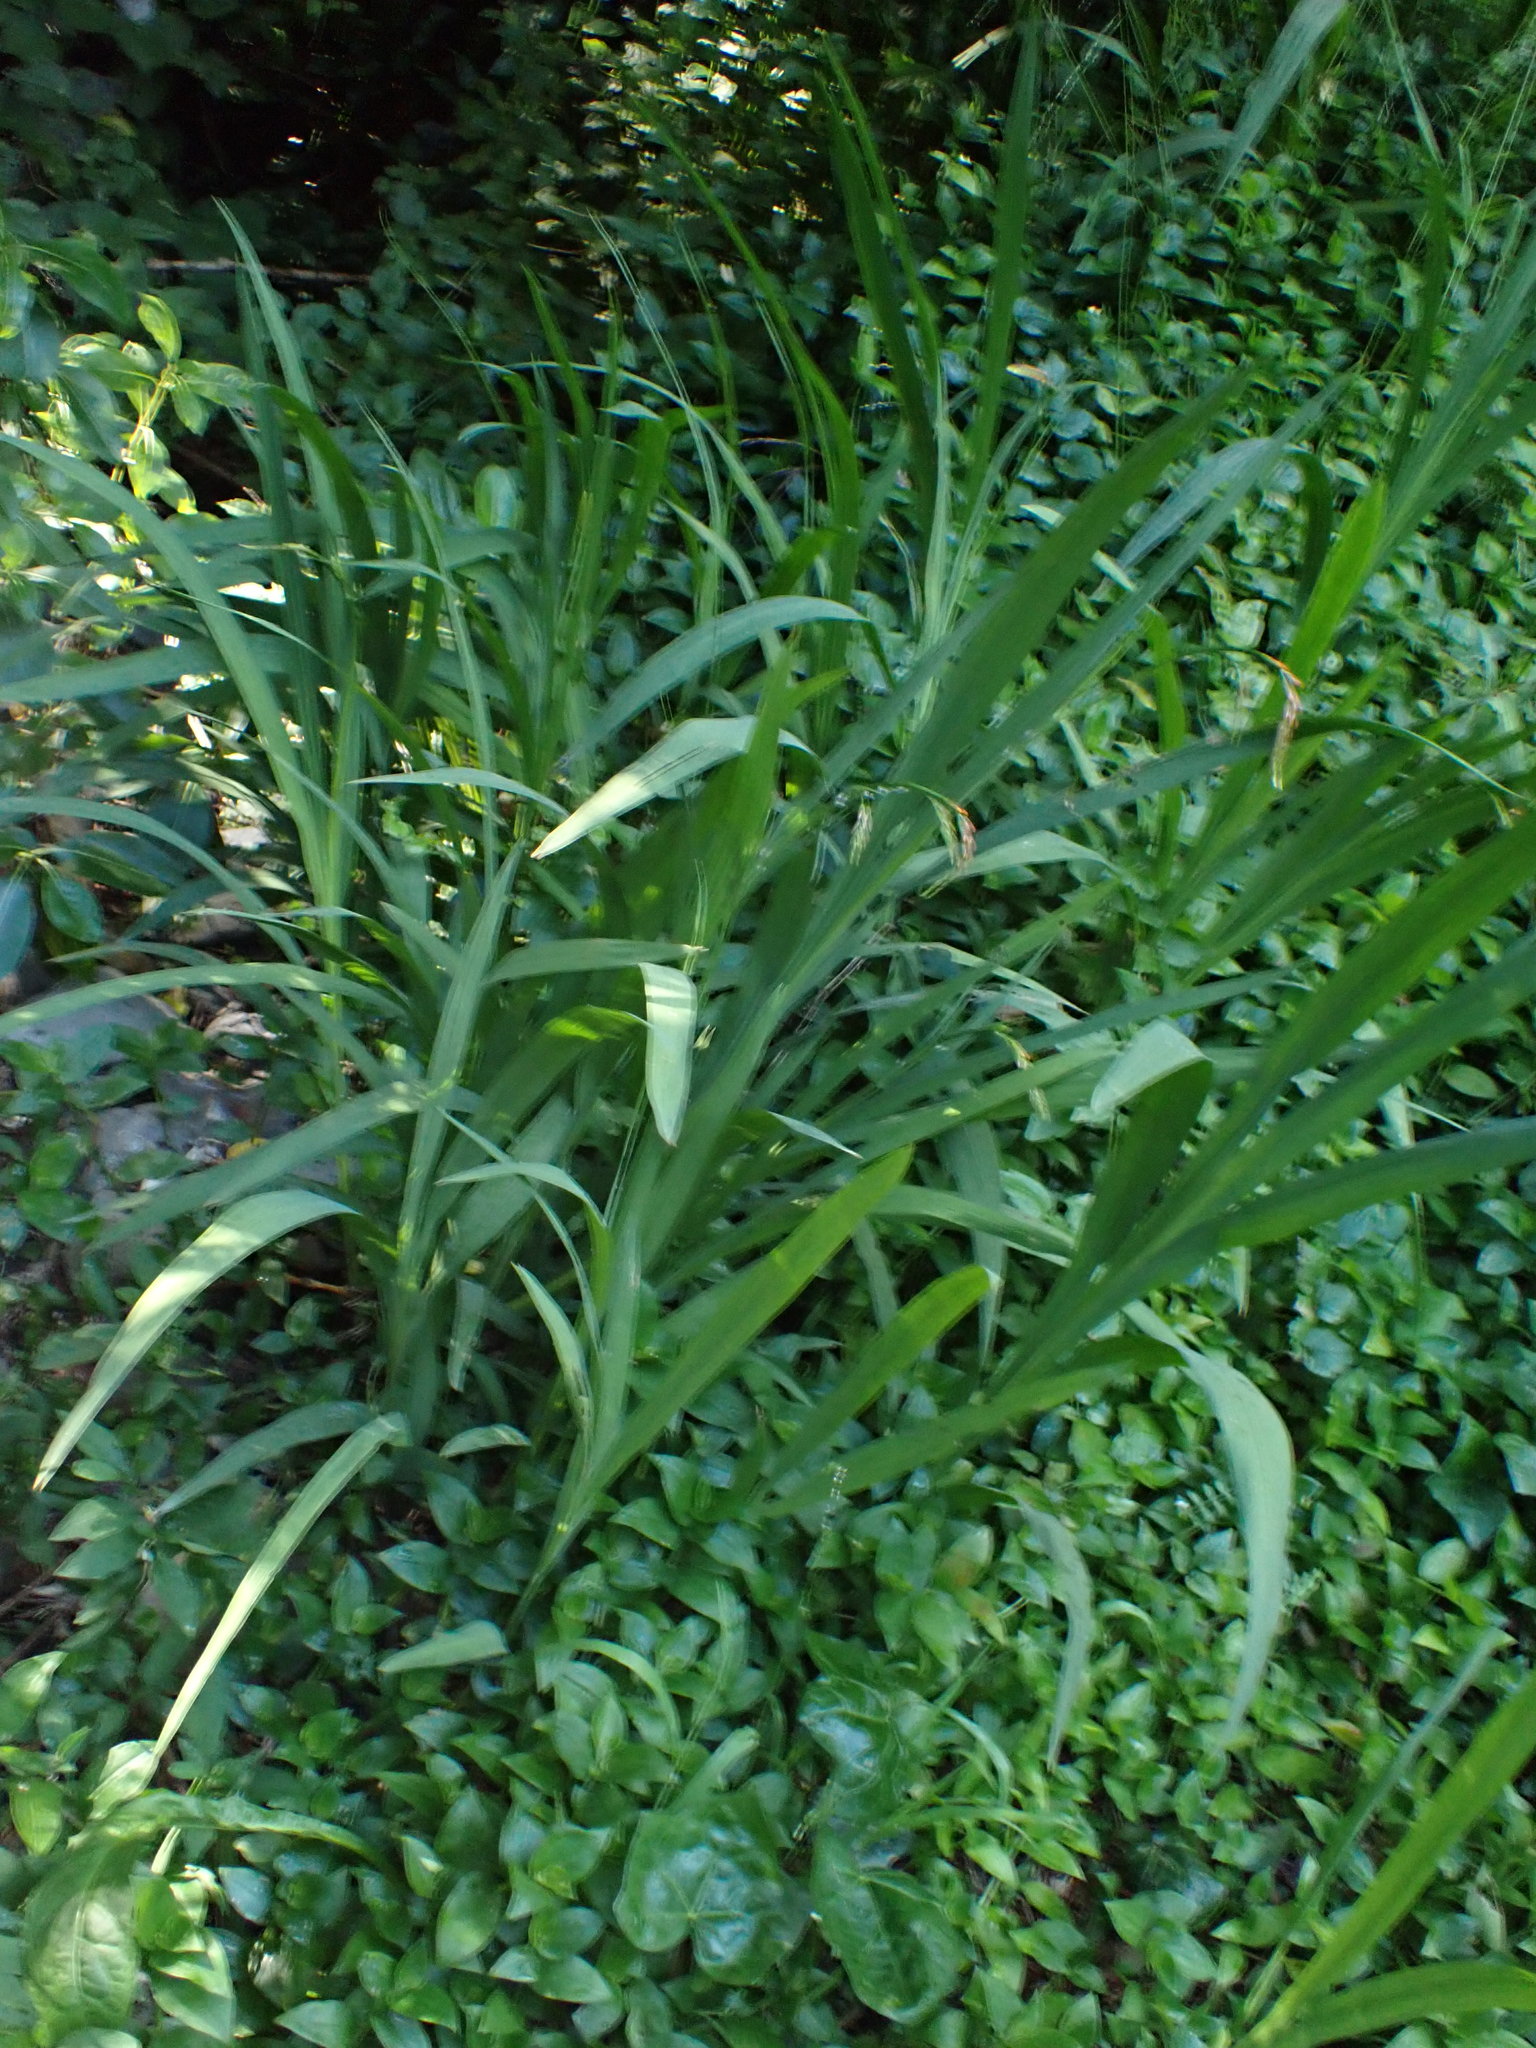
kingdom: Plantae
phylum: Tracheophyta
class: Liliopsida
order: Asparagales
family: Iridaceae
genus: Crocosmia
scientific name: Crocosmia crocosmiiflora
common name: Montbretia
